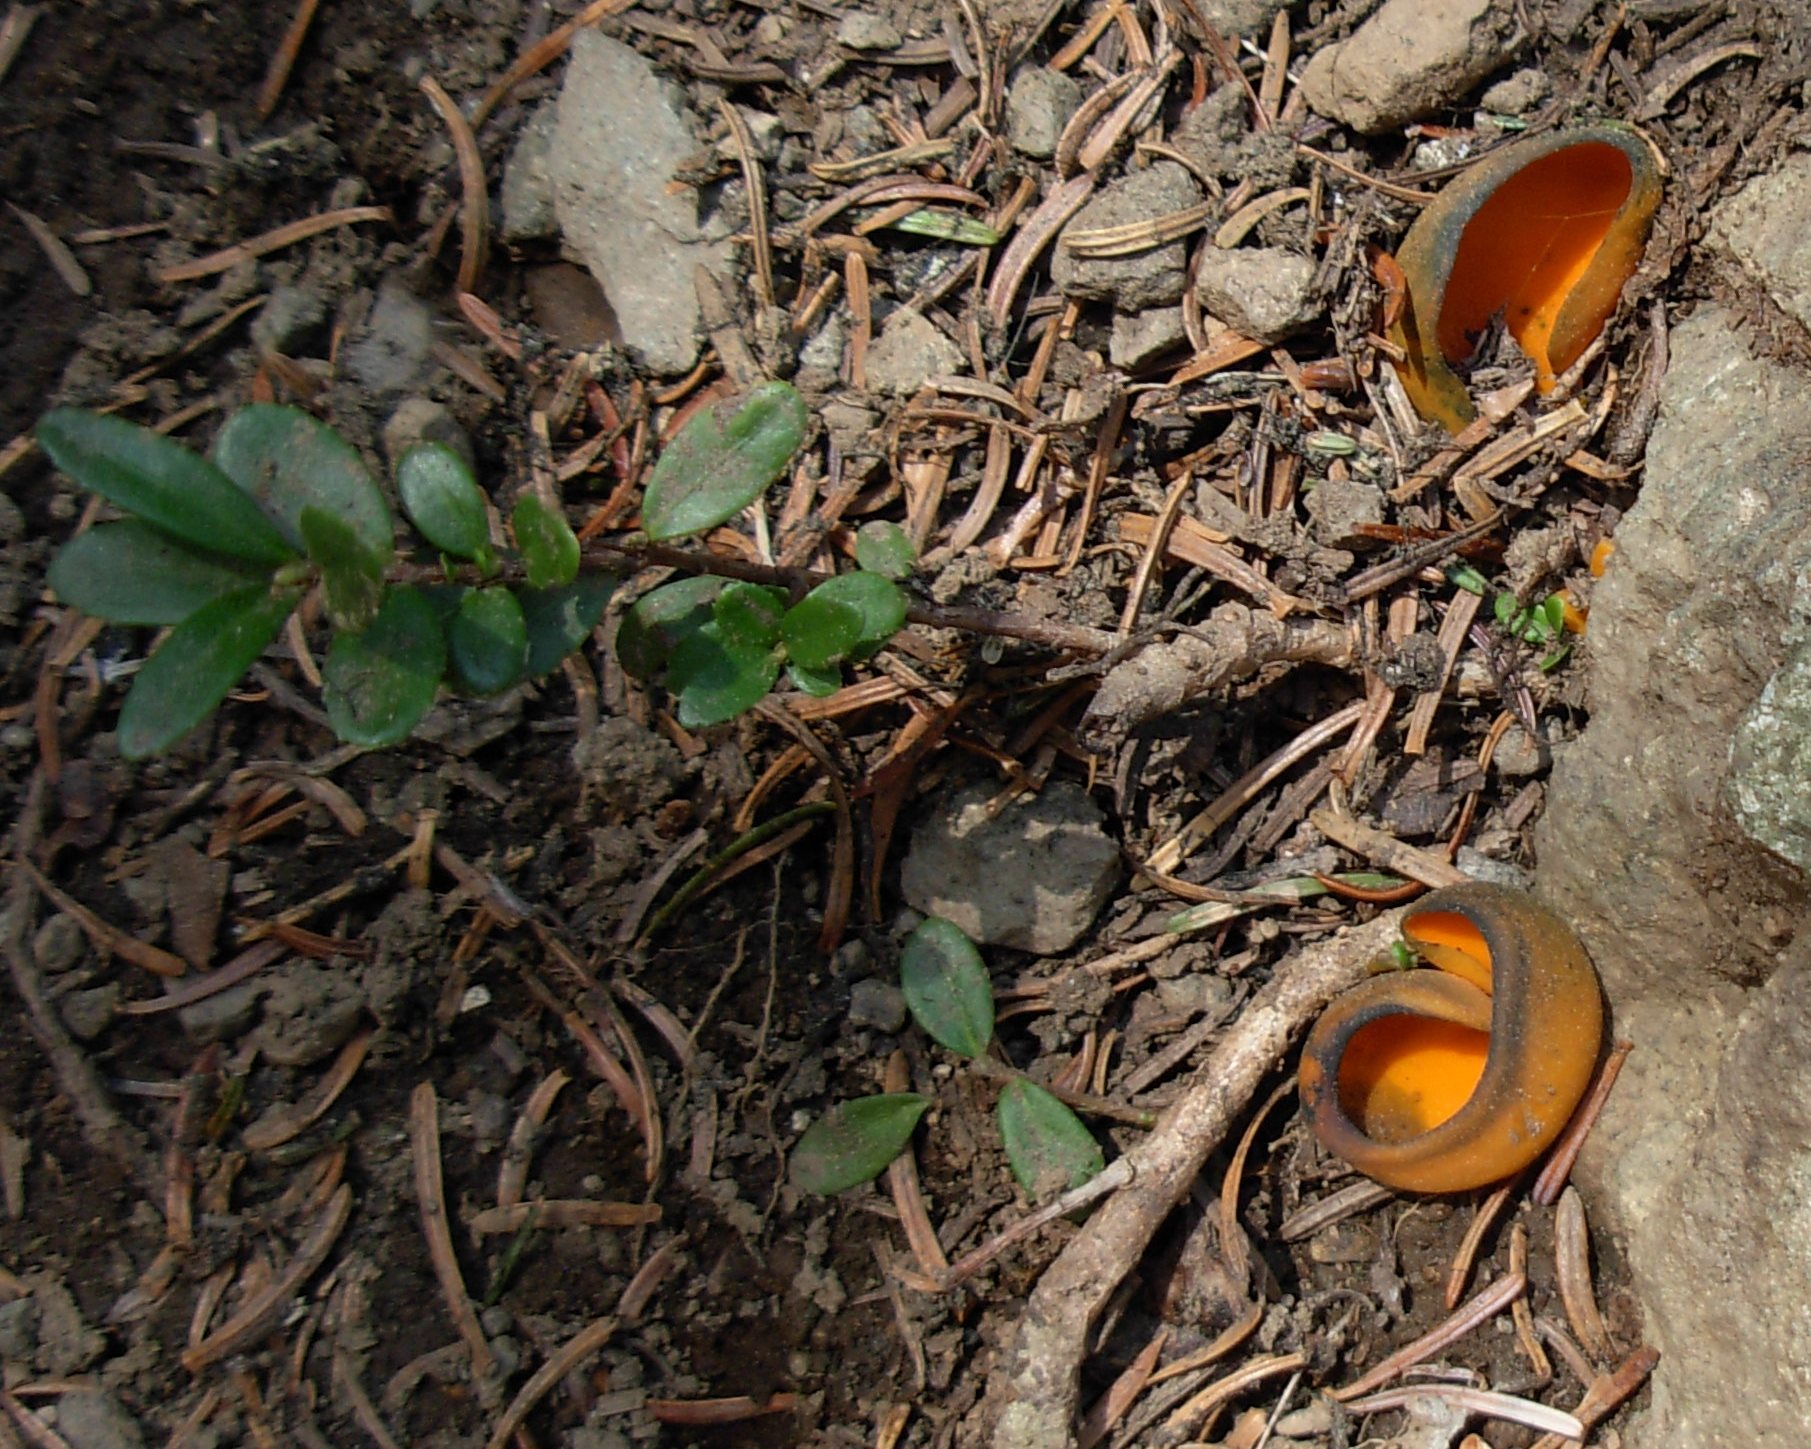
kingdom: Fungi
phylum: Ascomycota
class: Pezizomycetes
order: Pezizales
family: Caloscyphaceae
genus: Caloscypha
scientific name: Caloscypha fulgens
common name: Golden cup
